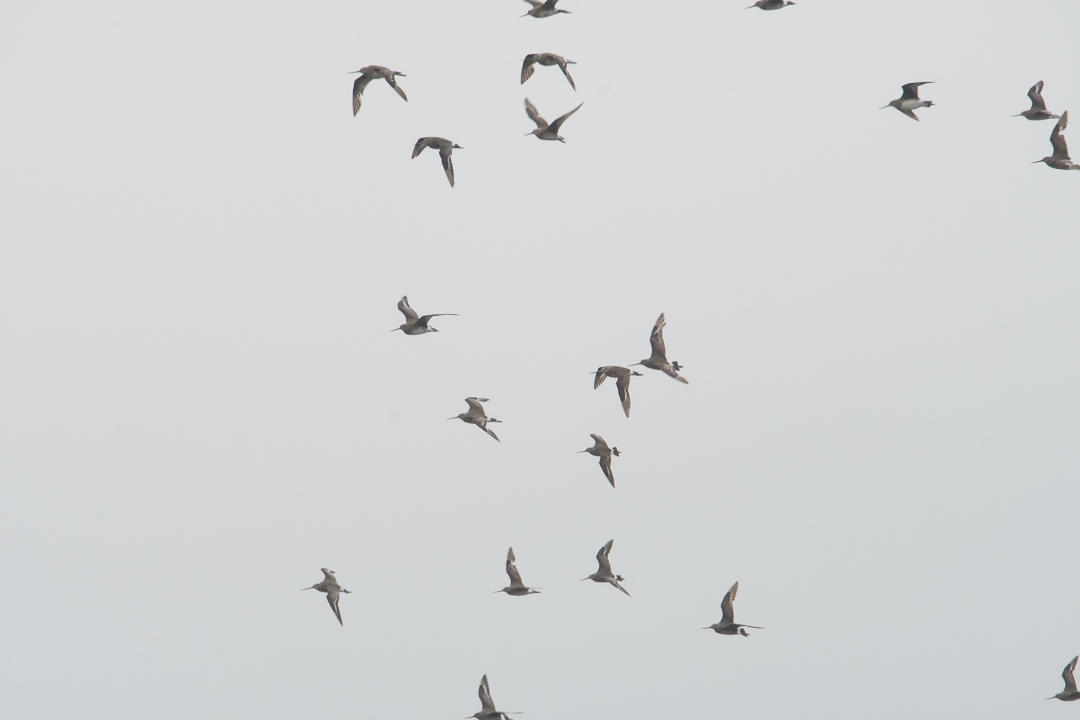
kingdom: Animalia
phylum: Chordata
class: Aves
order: Charadriiformes
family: Scolopacidae
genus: Limosa
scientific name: Limosa haemastica
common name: Hudsonian godwit
